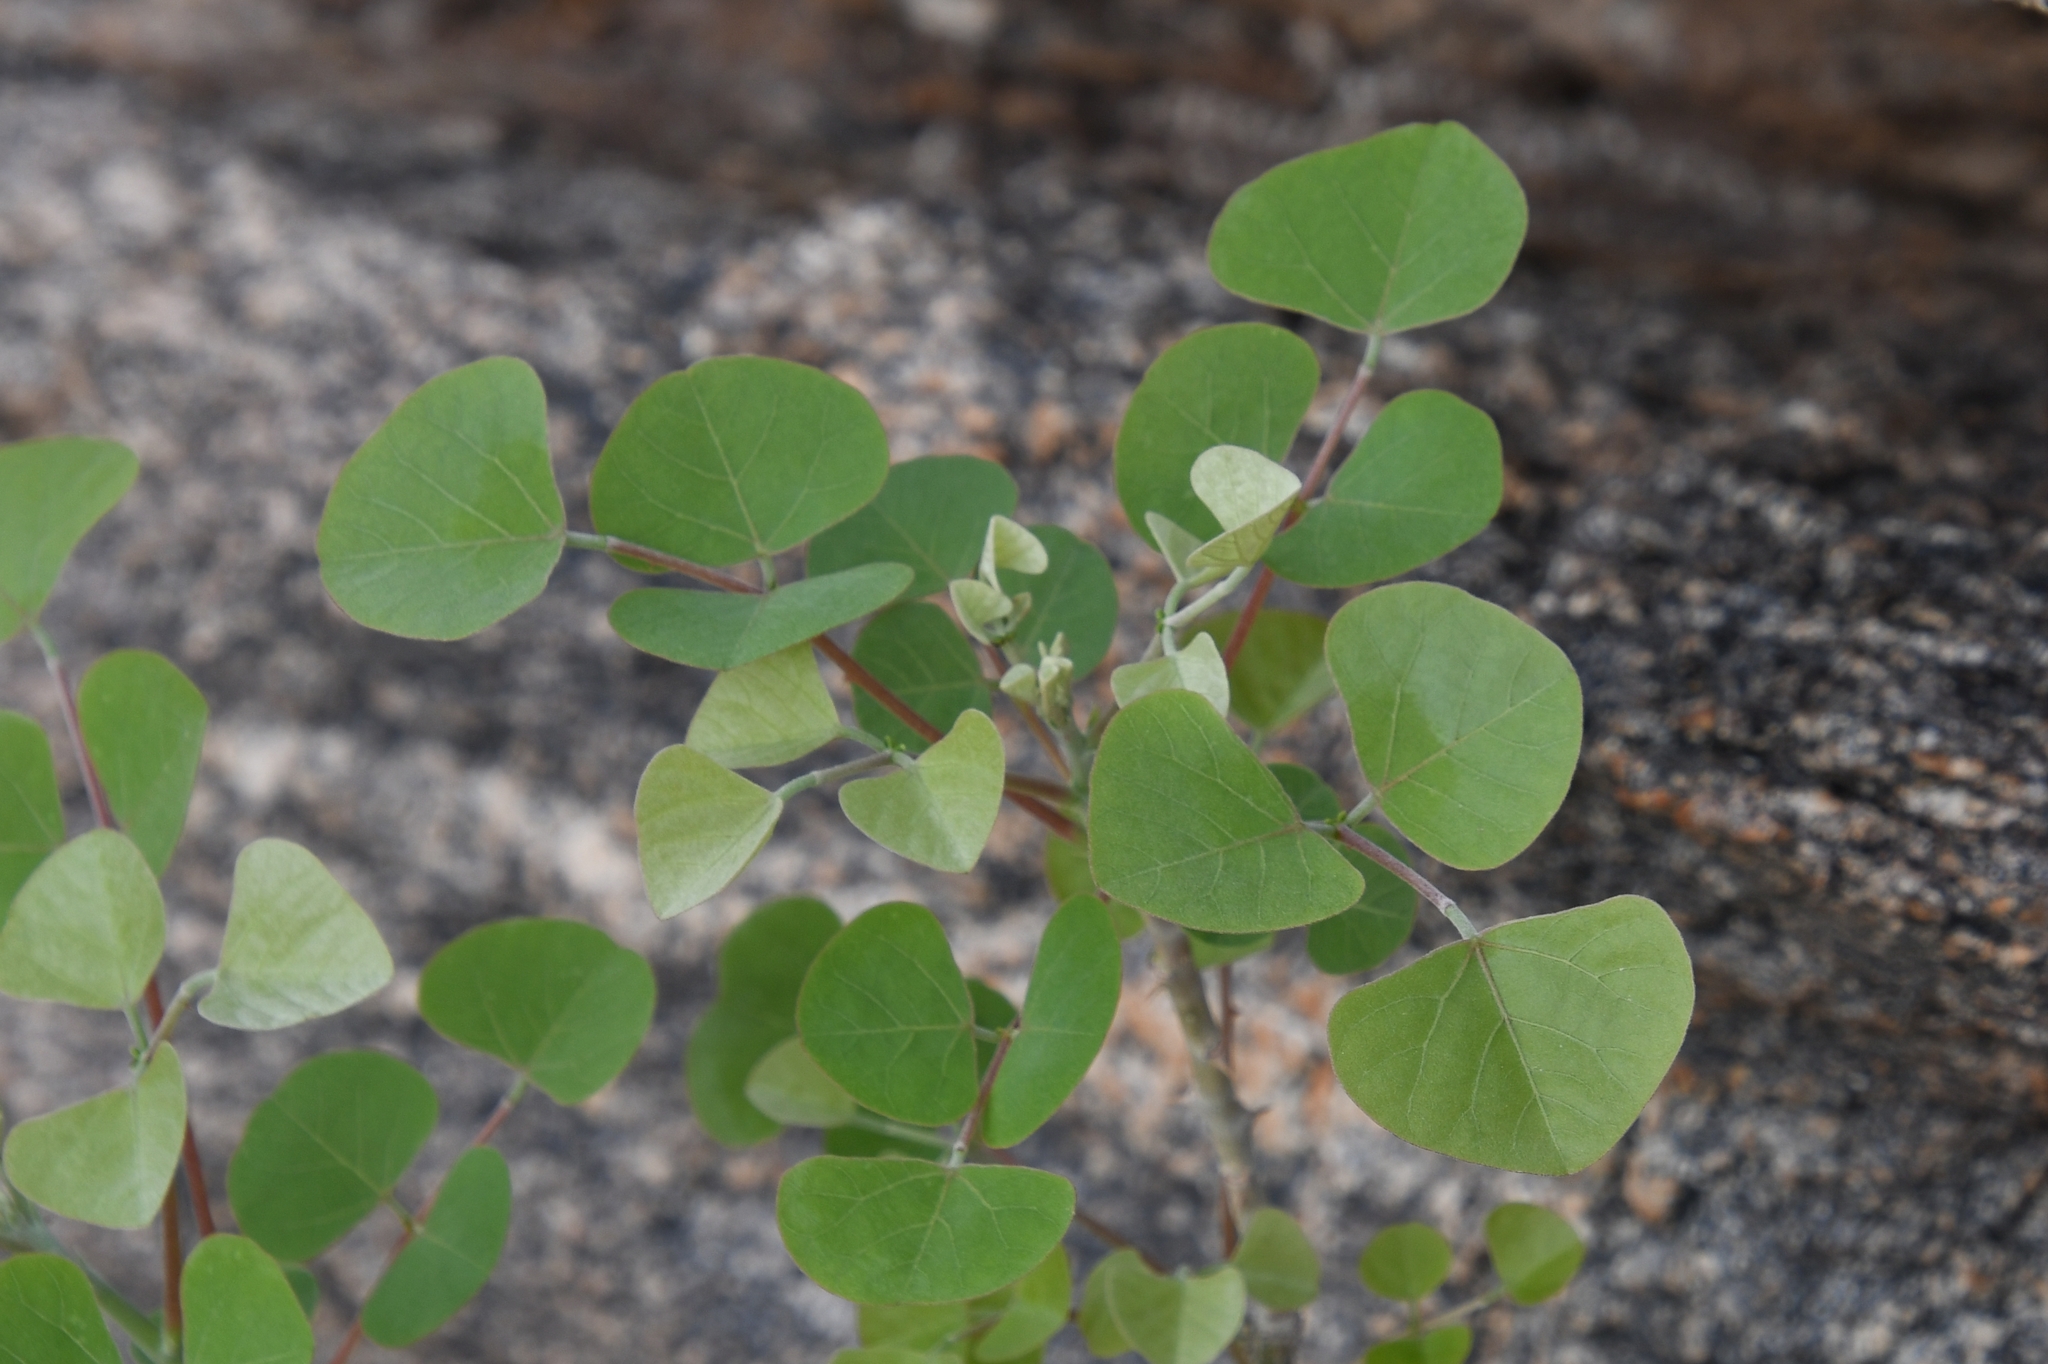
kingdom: Plantae
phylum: Tracheophyta
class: Magnoliopsida
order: Fabales
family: Fabaceae
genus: Erythrina
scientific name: Erythrina flabelliformis
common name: Chilicote
